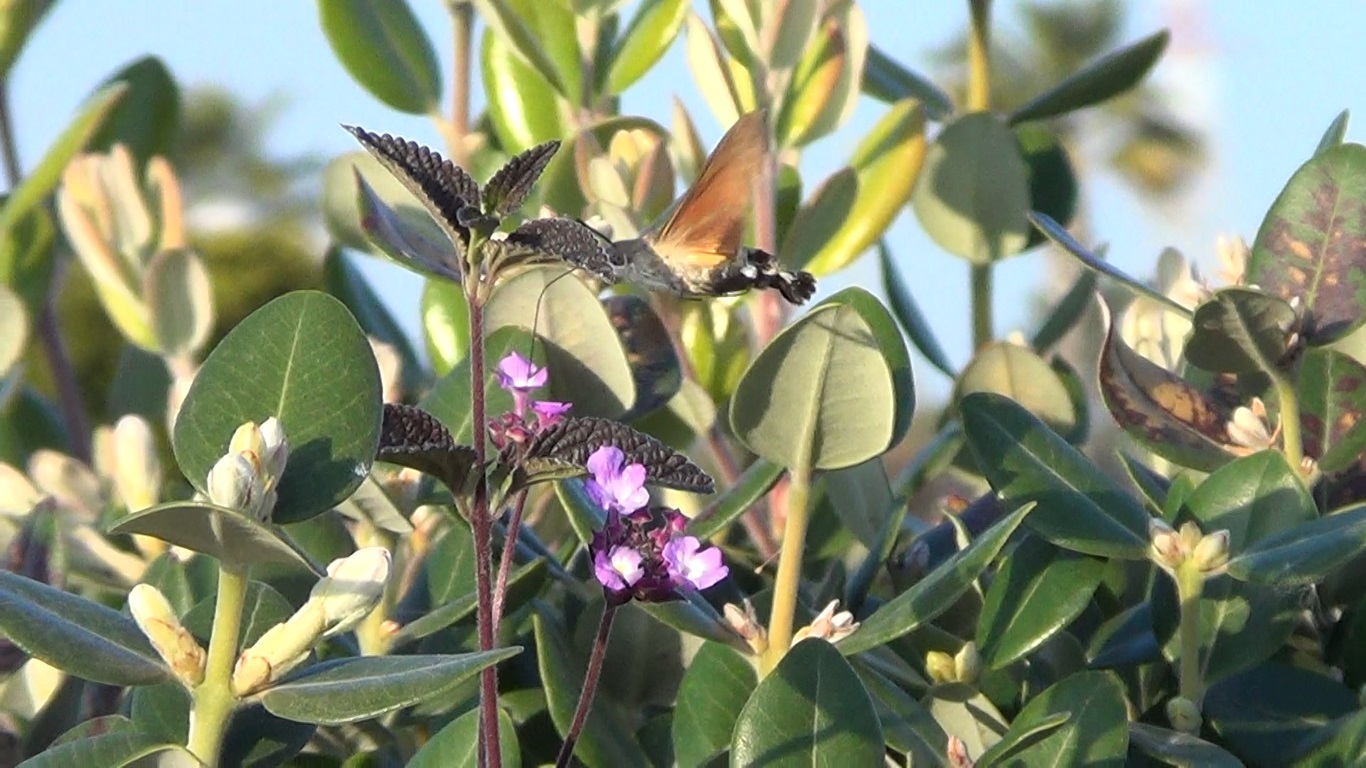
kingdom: Animalia
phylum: Arthropoda
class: Insecta
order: Lepidoptera
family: Sphingidae
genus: Macroglossum
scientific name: Macroglossum stellatarum
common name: Humming-bird hawk-moth
